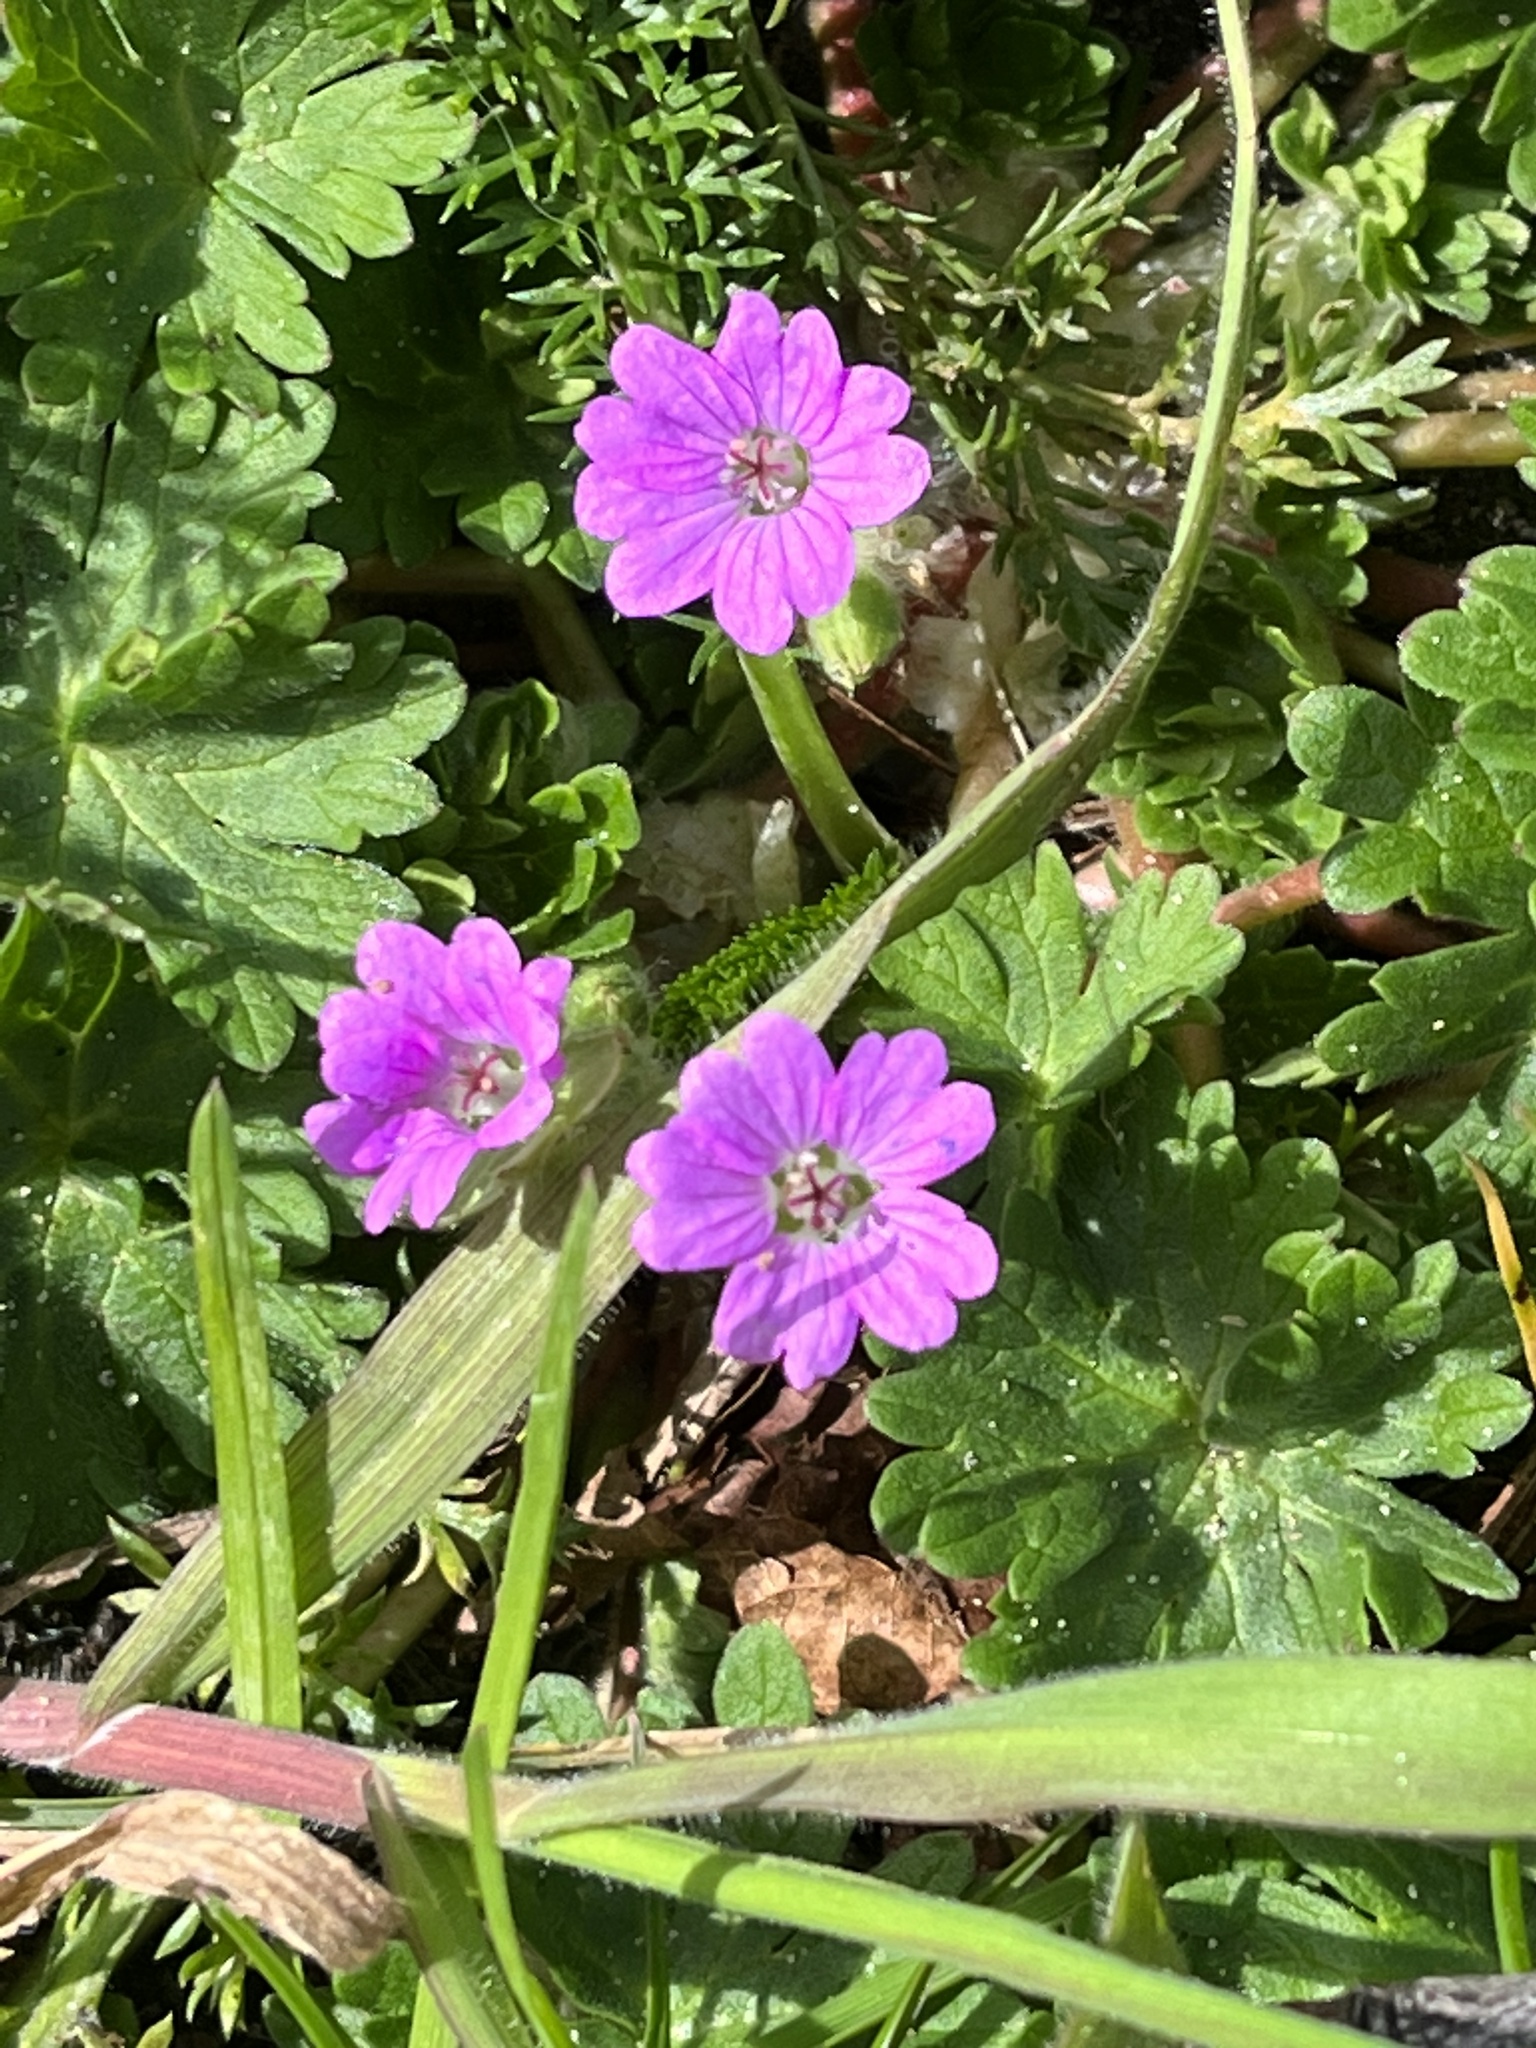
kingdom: Plantae
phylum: Tracheophyta
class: Magnoliopsida
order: Geraniales
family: Geraniaceae
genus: Geranium
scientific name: Geranium molle
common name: Dove's-foot crane's-bill
